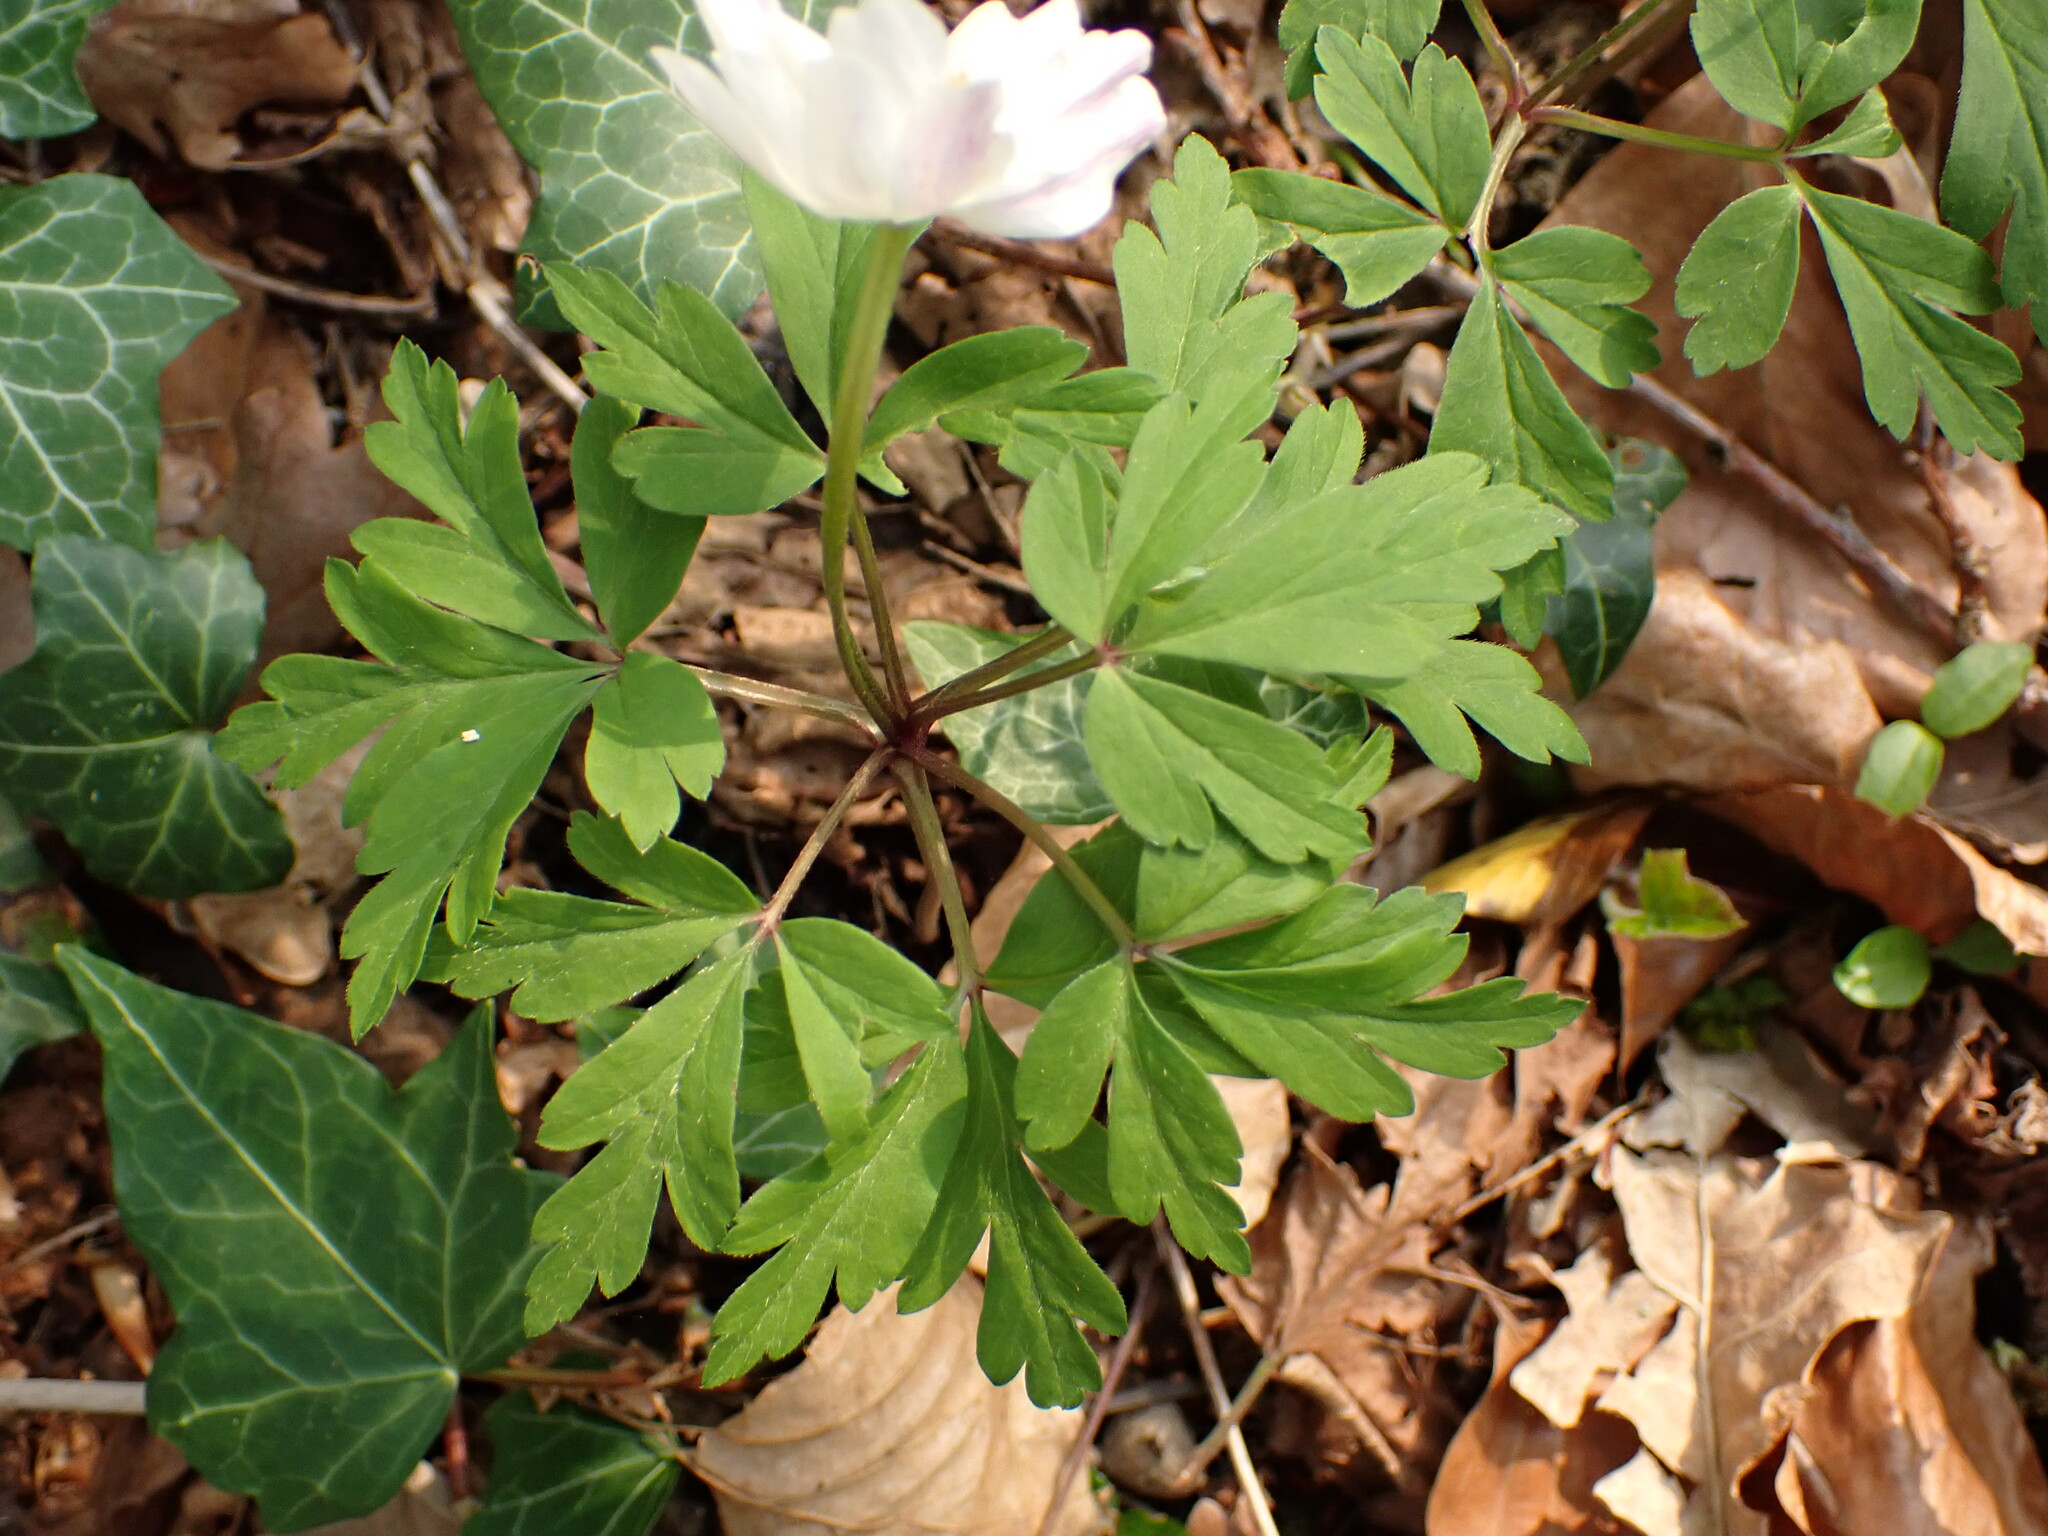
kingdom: Plantae
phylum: Tracheophyta
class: Magnoliopsida
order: Ranunculales
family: Ranunculaceae
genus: Anemone
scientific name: Anemone nemorosa
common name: Wood anemone
